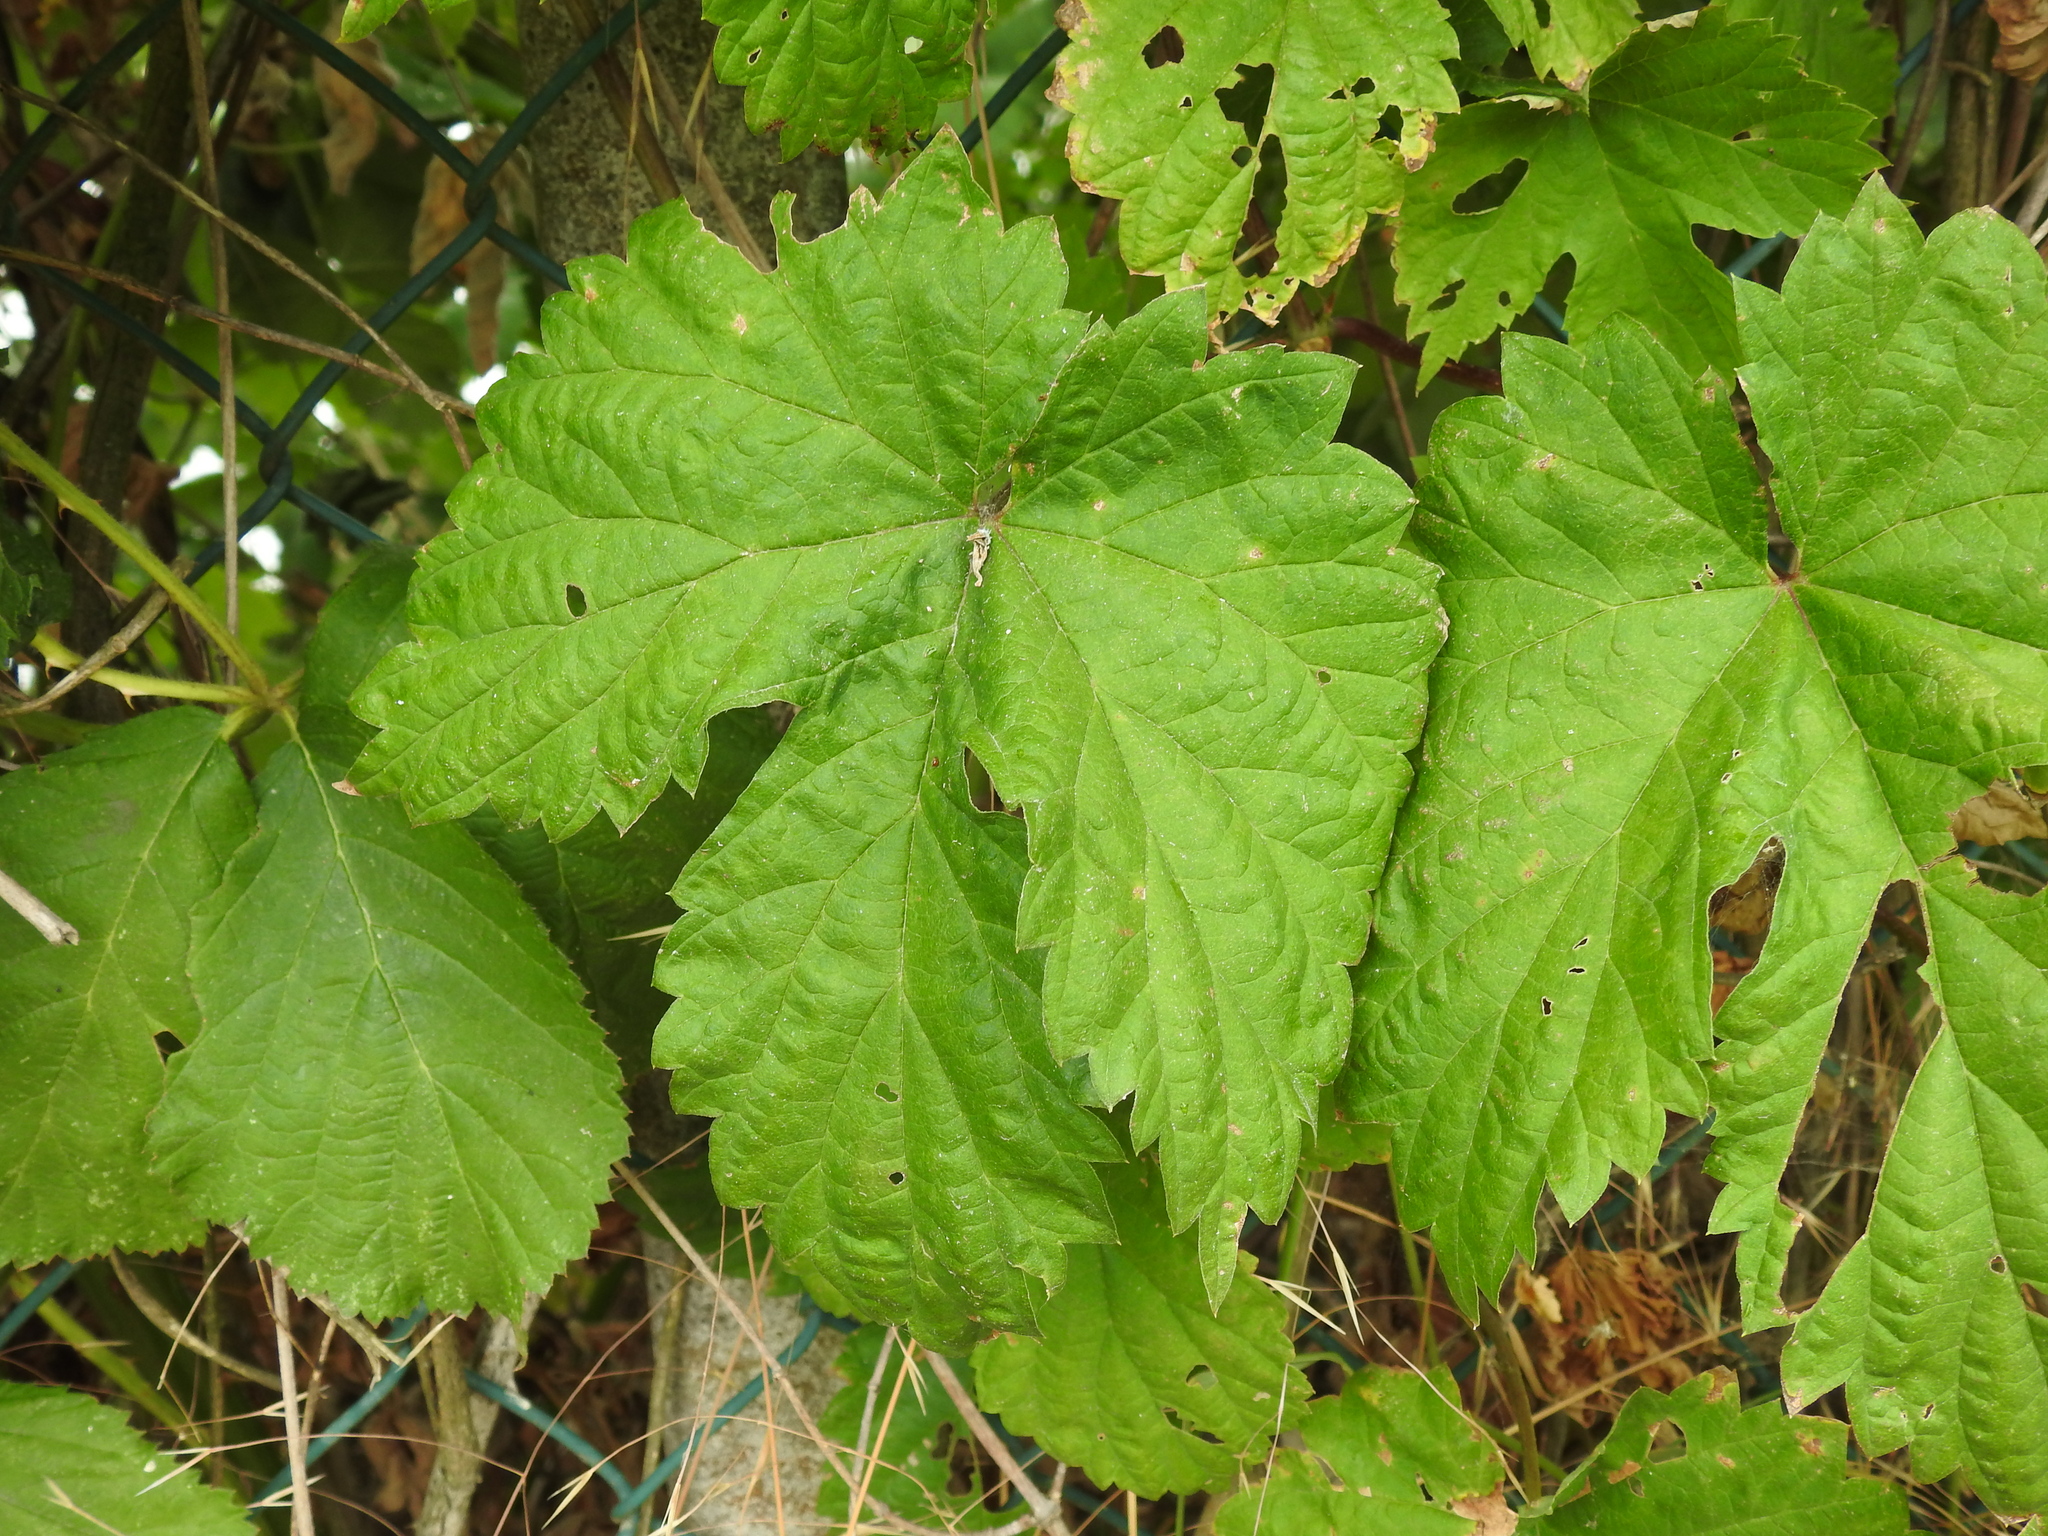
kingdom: Plantae
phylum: Tracheophyta
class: Magnoliopsida
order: Rosales
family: Cannabaceae
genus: Humulus
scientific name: Humulus lupulus
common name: Hop
